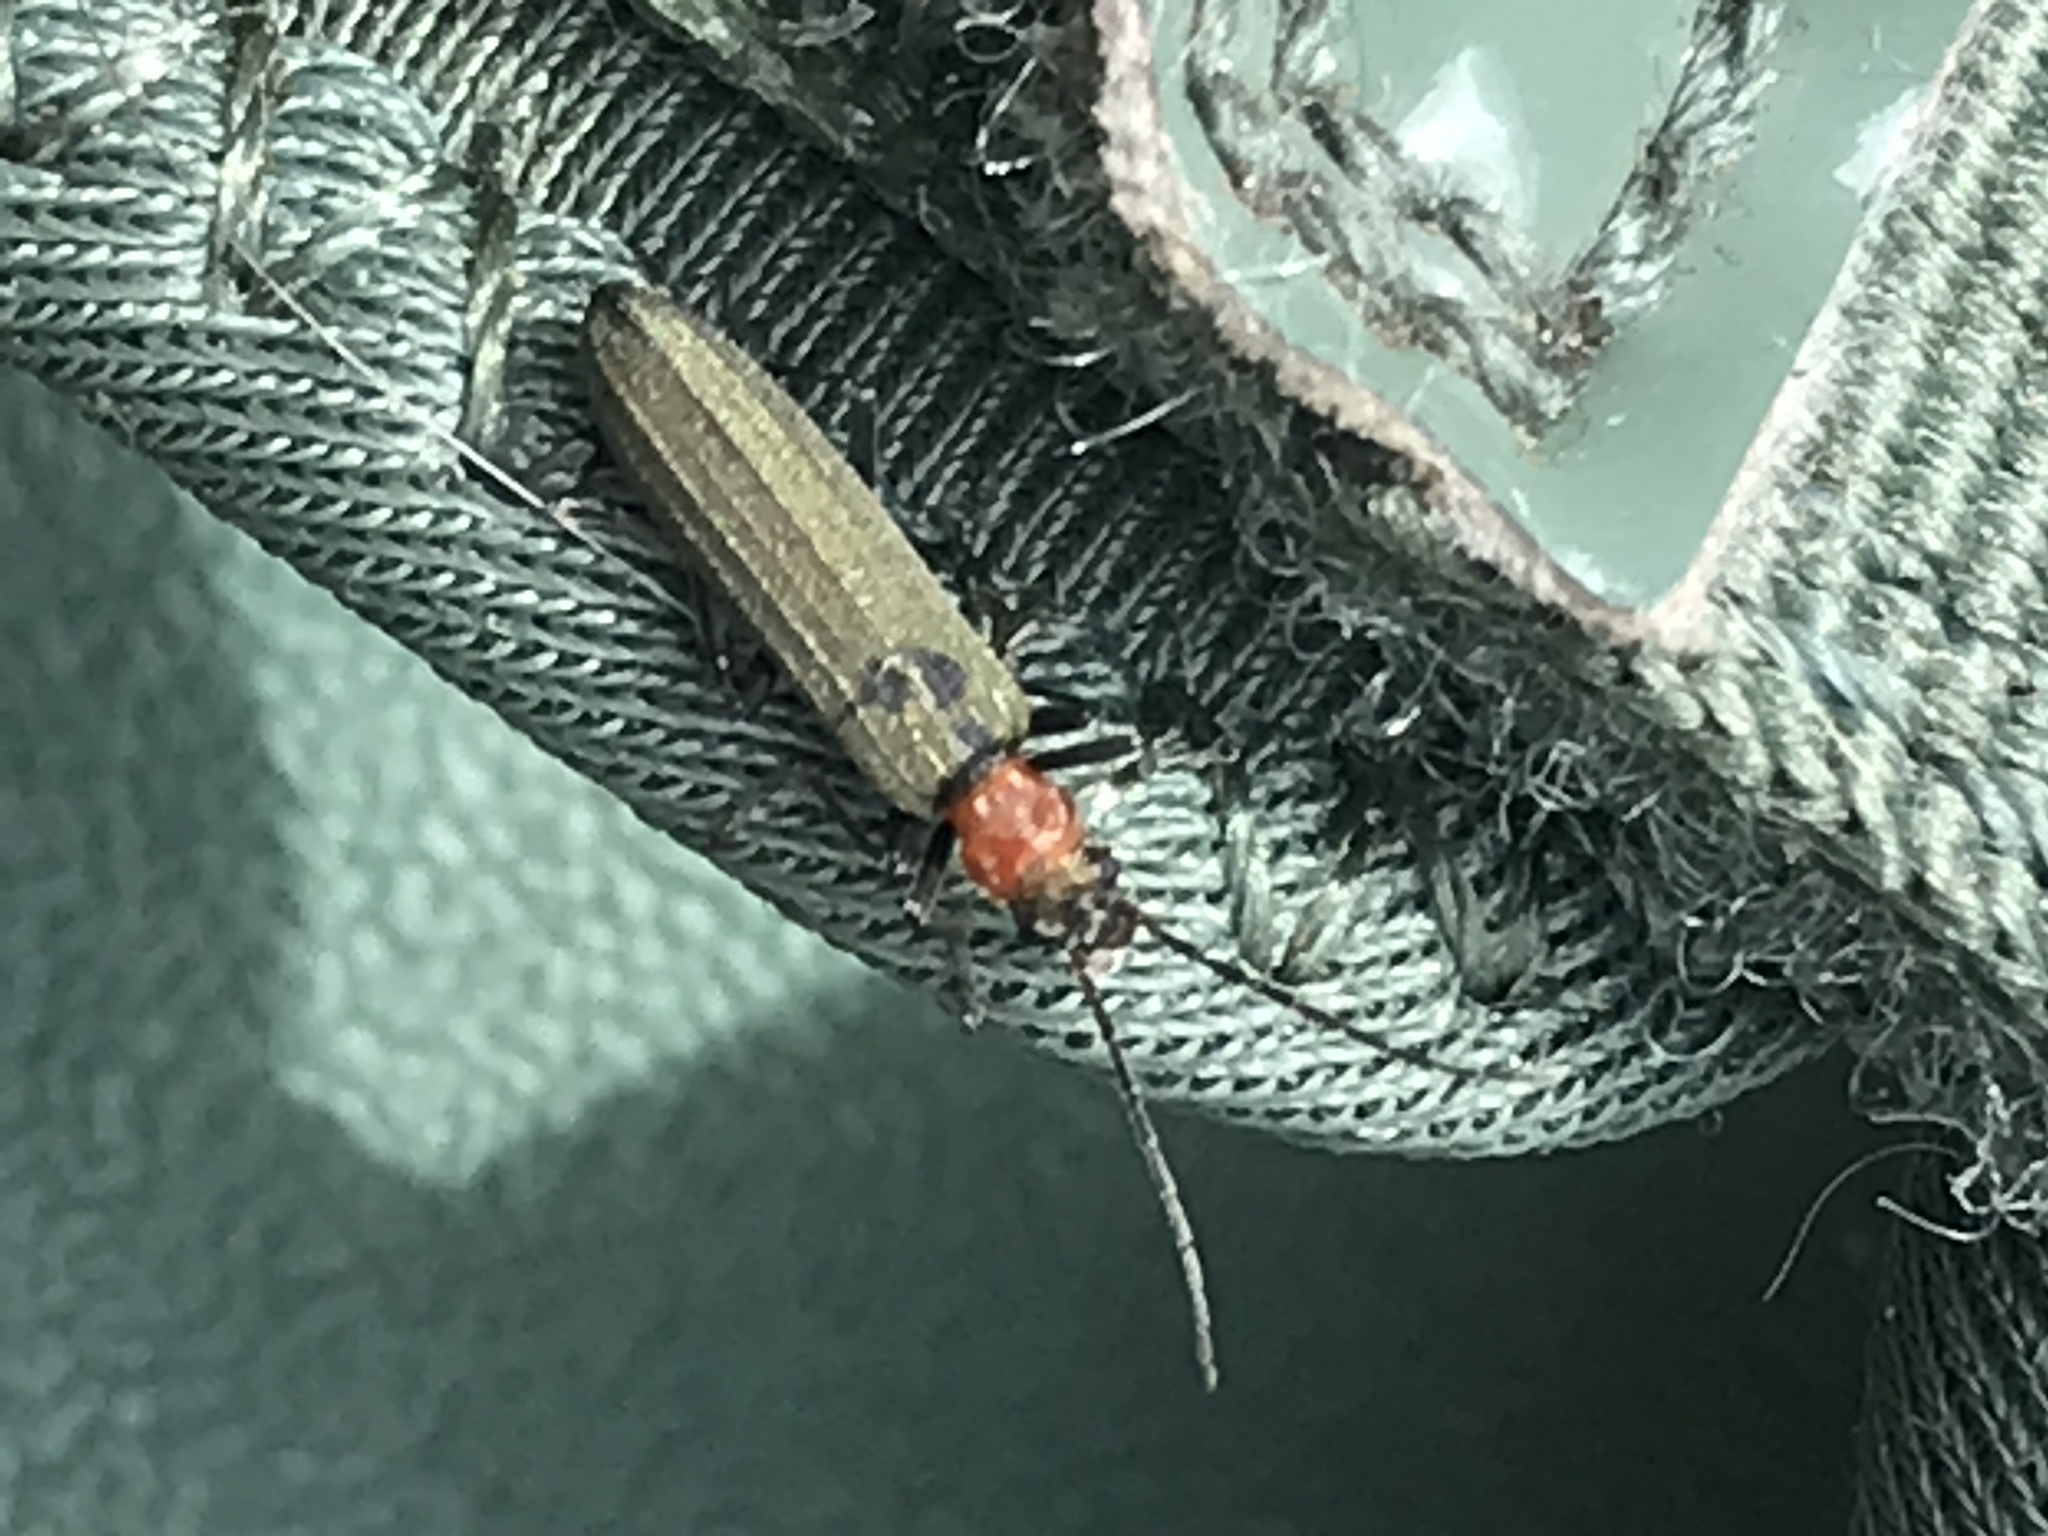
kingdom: Animalia
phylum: Arthropoda
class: Insecta
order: Coleoptera
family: Oedemeridae
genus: Ischnomera
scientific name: Ischnomera sanguinicollis
